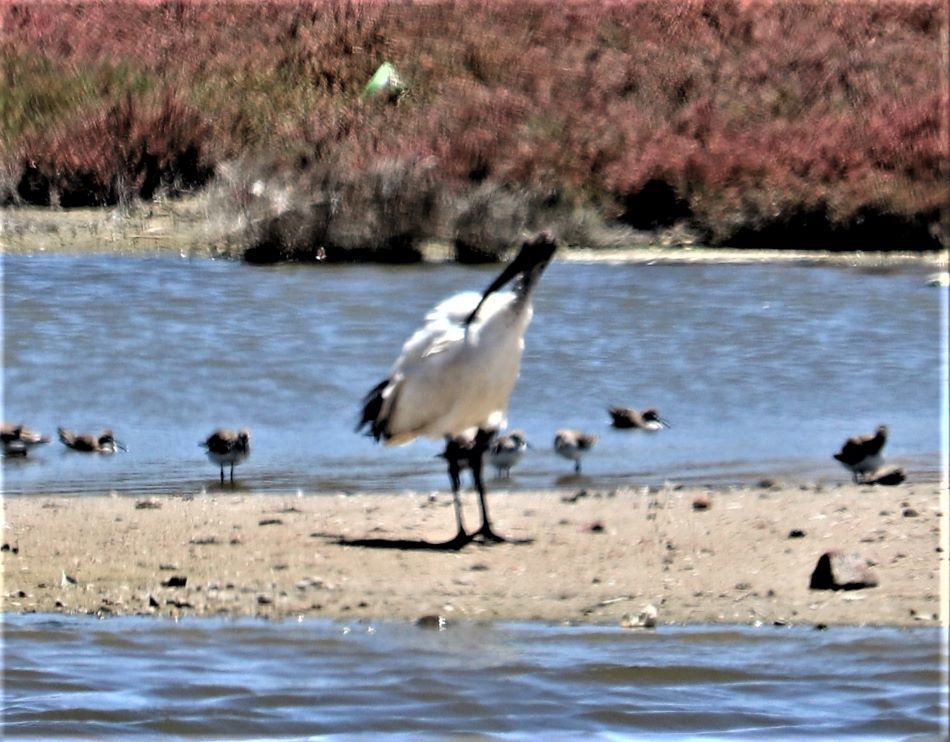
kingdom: Animalia
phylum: Chordata
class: Aves
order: Pelecaniformes
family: Threskiornithidae
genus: Threskiornis
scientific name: Threskiornis aethiopicus
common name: Sacred ibis
